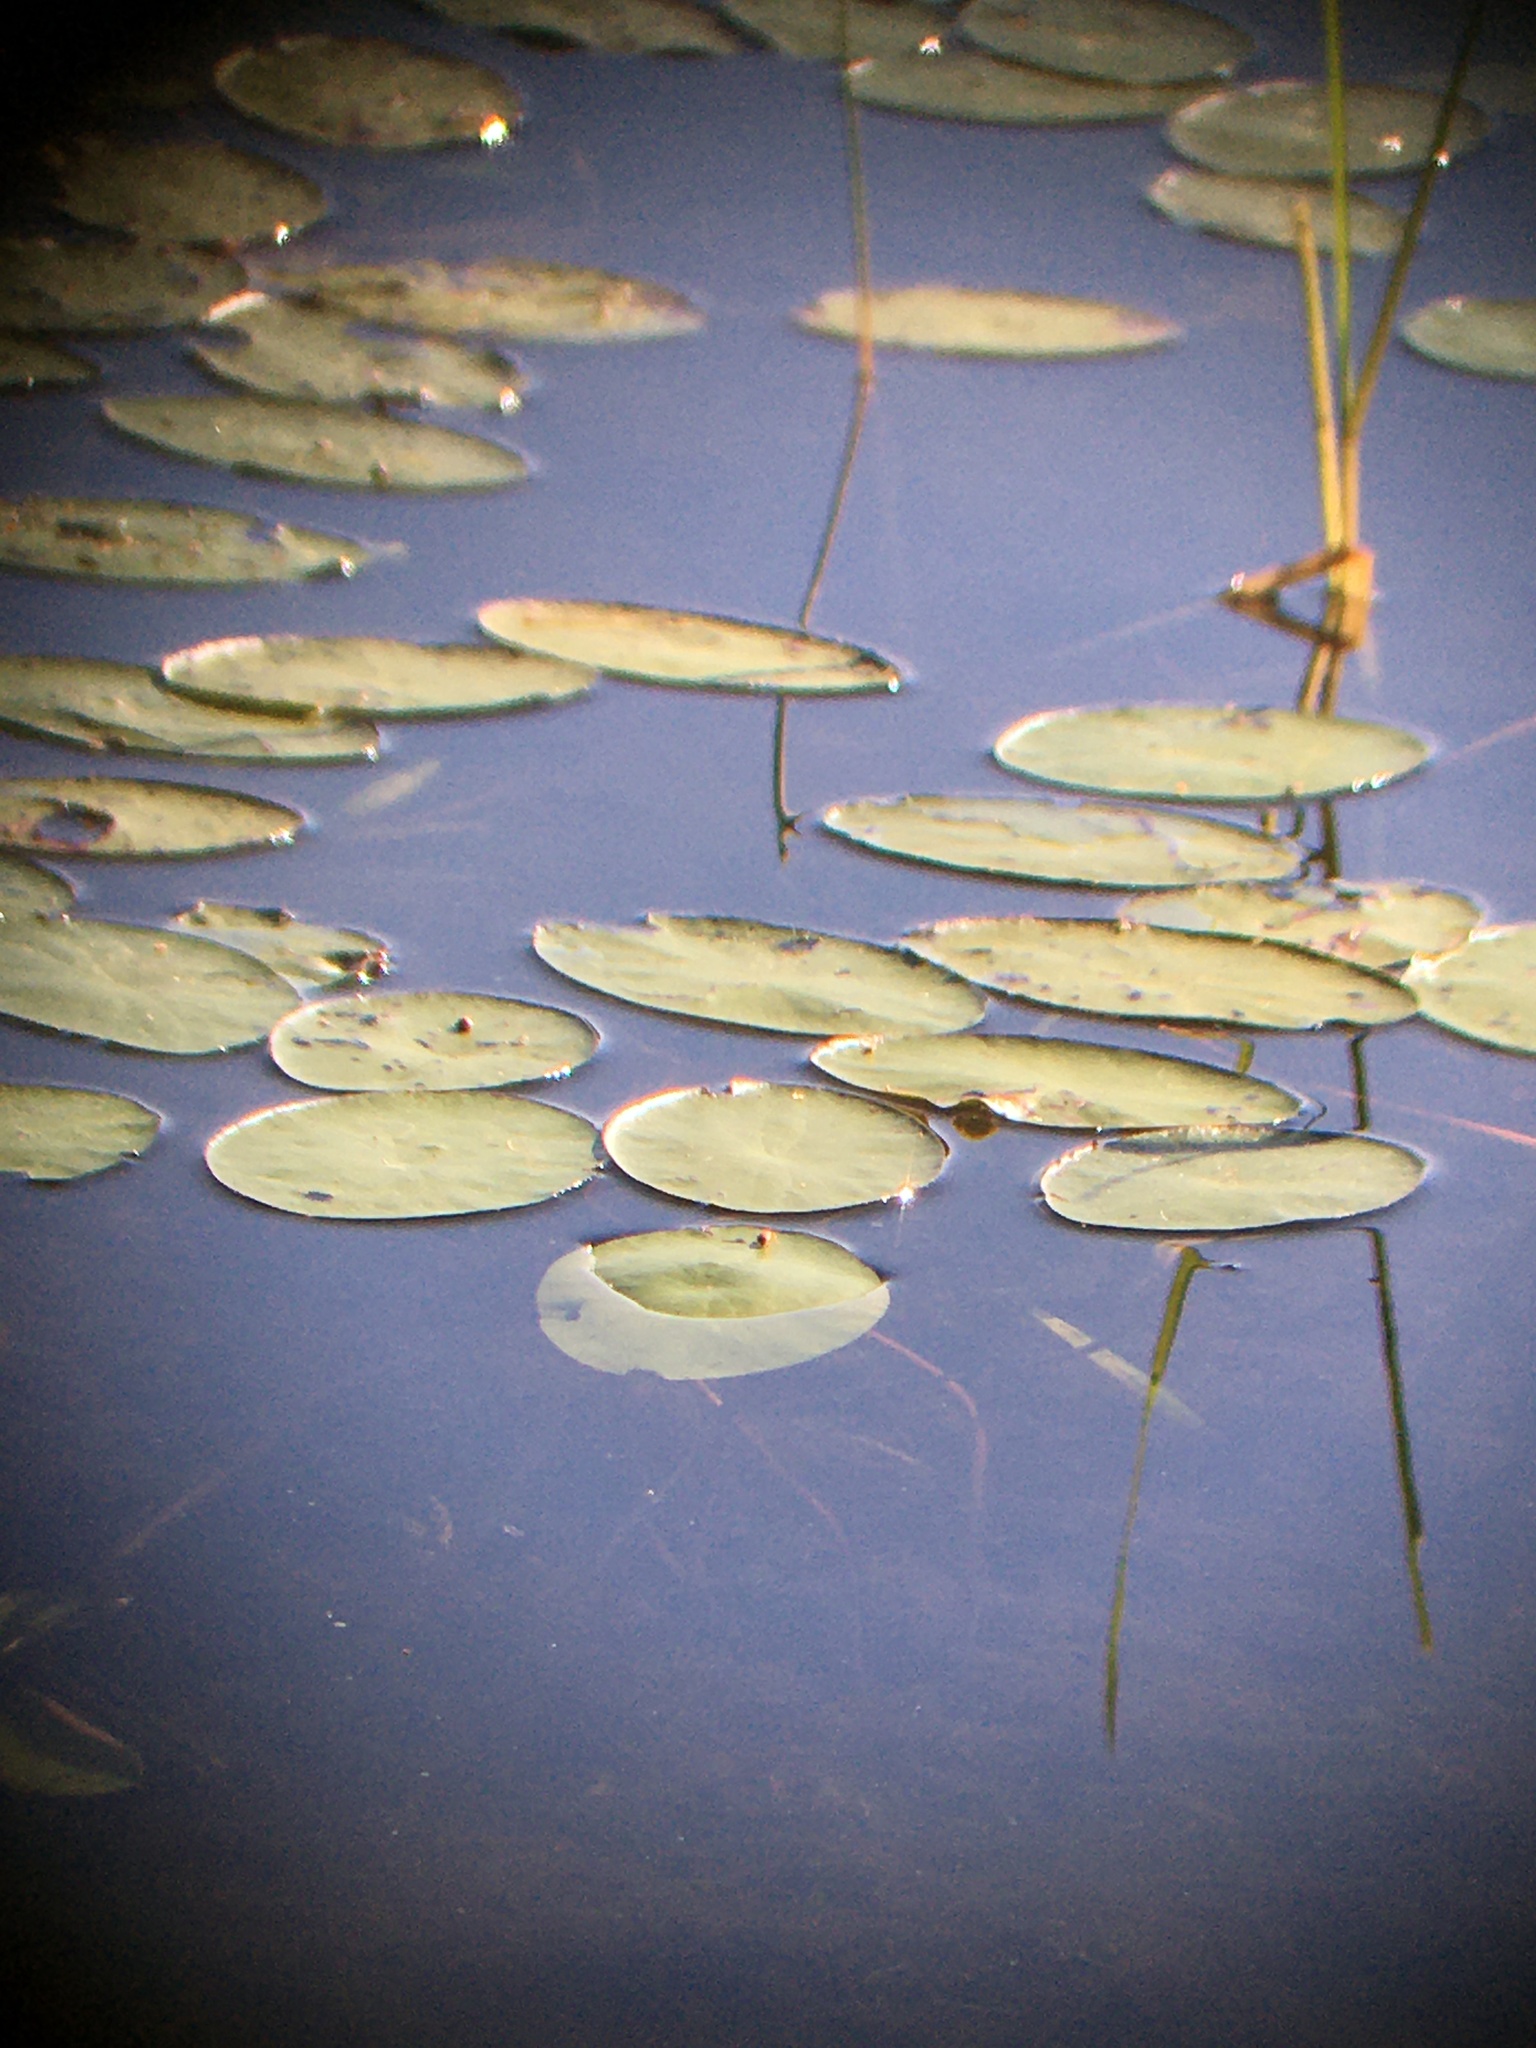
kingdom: Plantae
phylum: Tracheophyta
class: Magnoliopsida
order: Nymphaeales
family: Cabombaceae
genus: Brasenia
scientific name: Brasenia schreberi
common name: Water-shield
